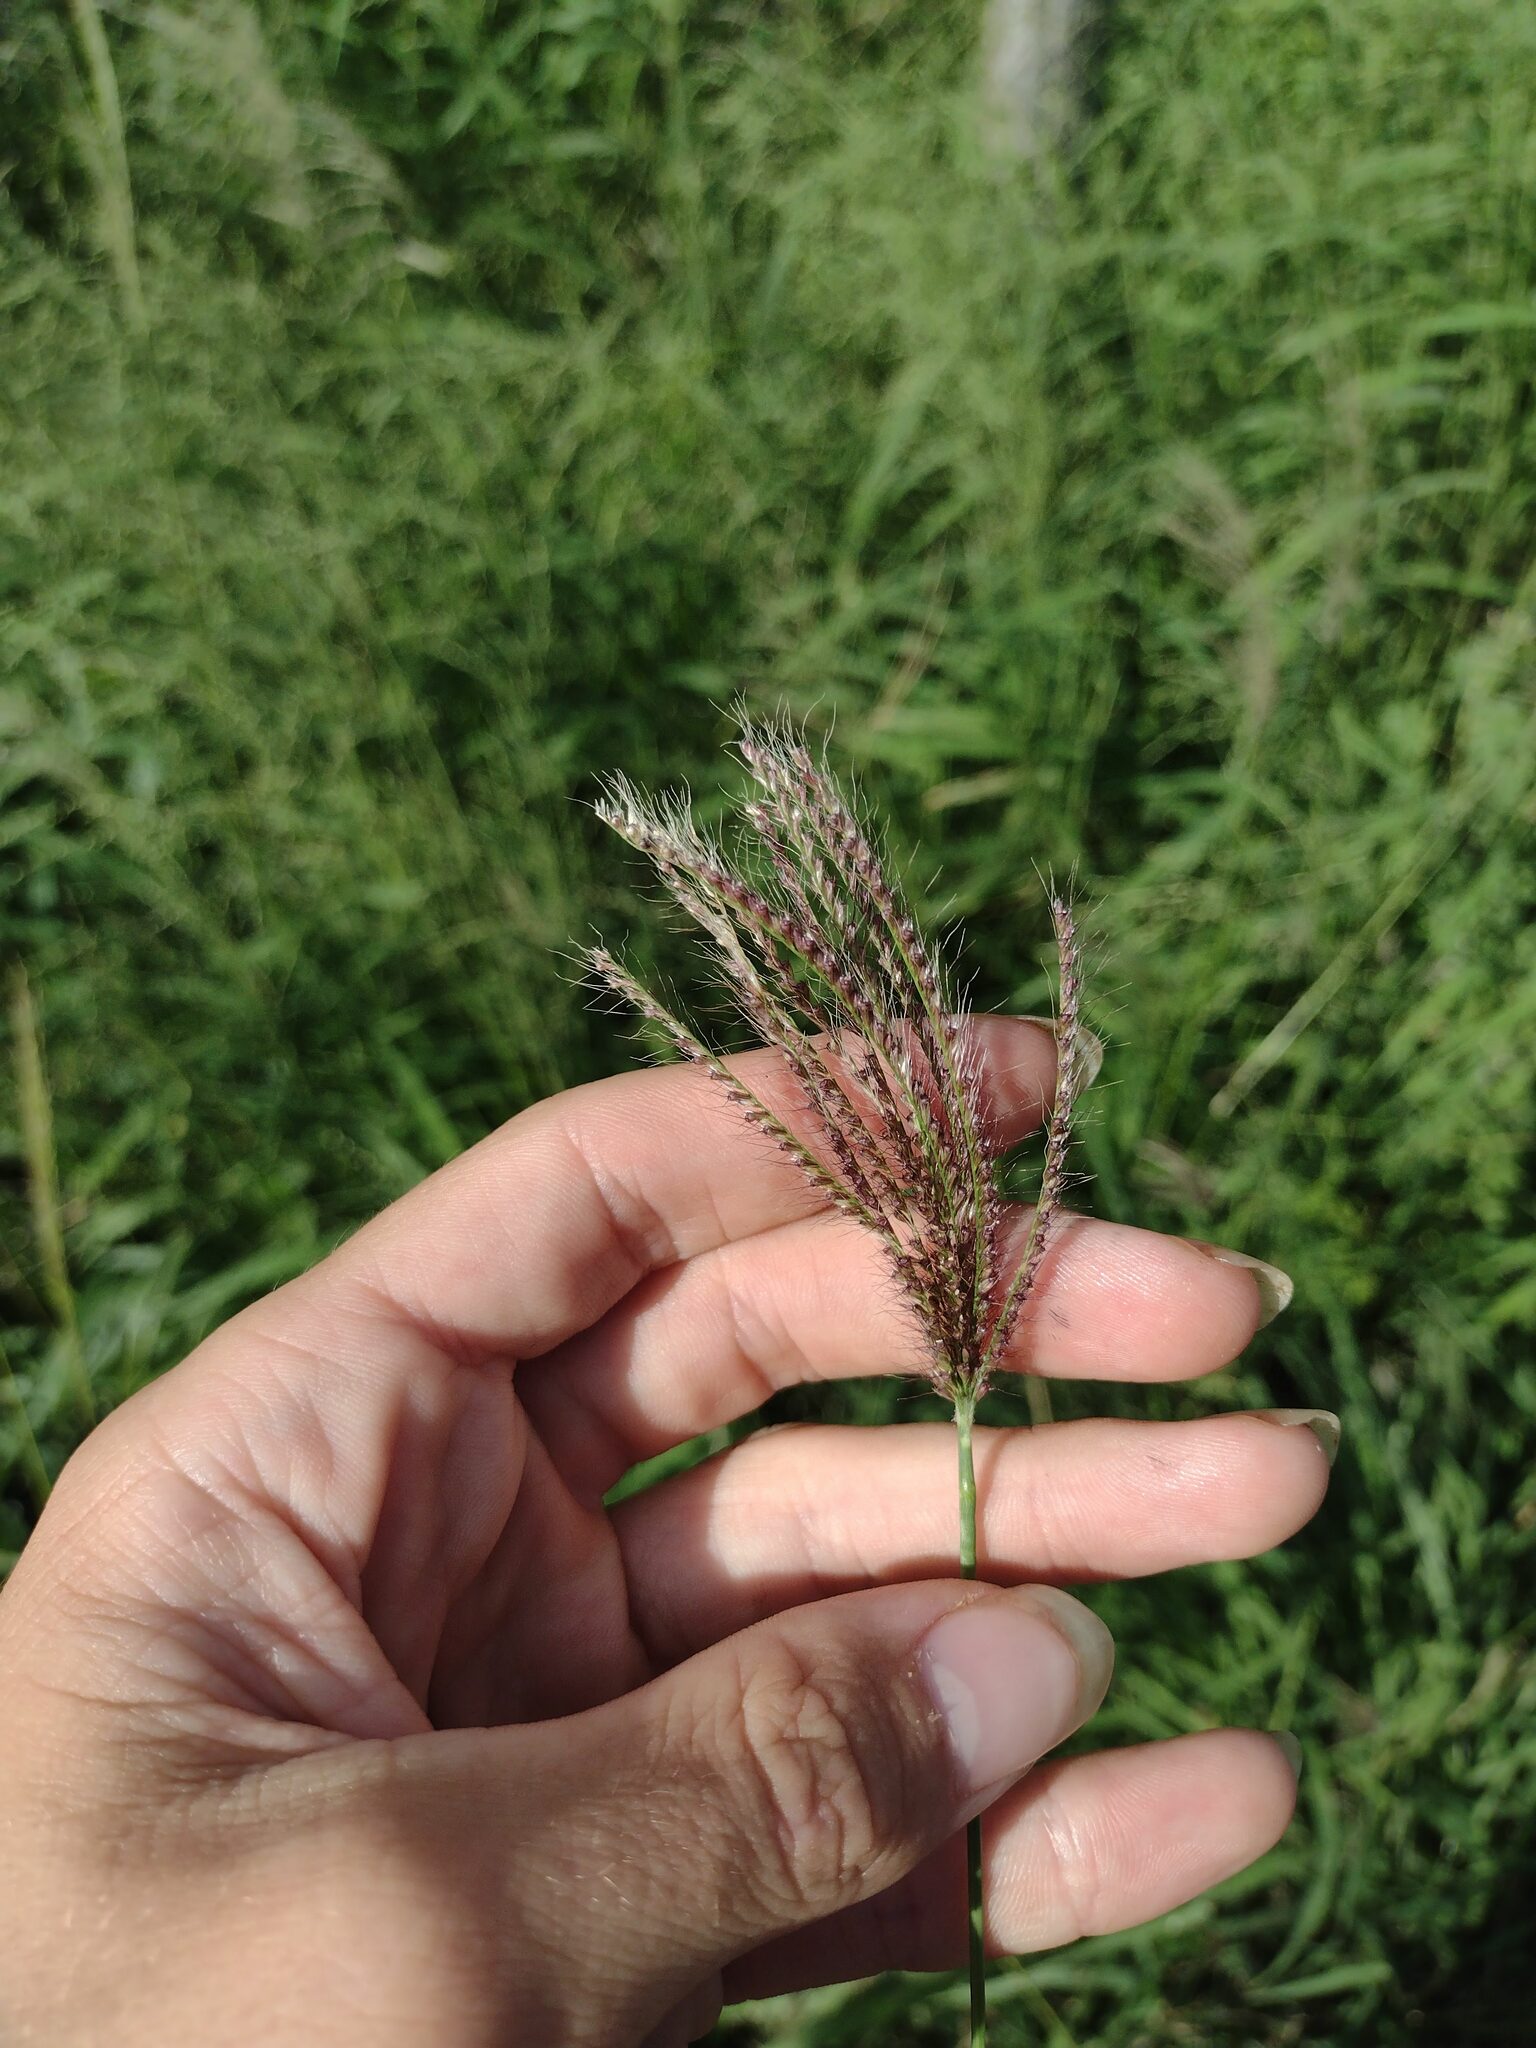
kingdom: Plantae
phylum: Tracheophyta
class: Liliopsida
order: Poales
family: Poaceae
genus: Chloris
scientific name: Chloris barbata
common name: Swollen fingergrass
